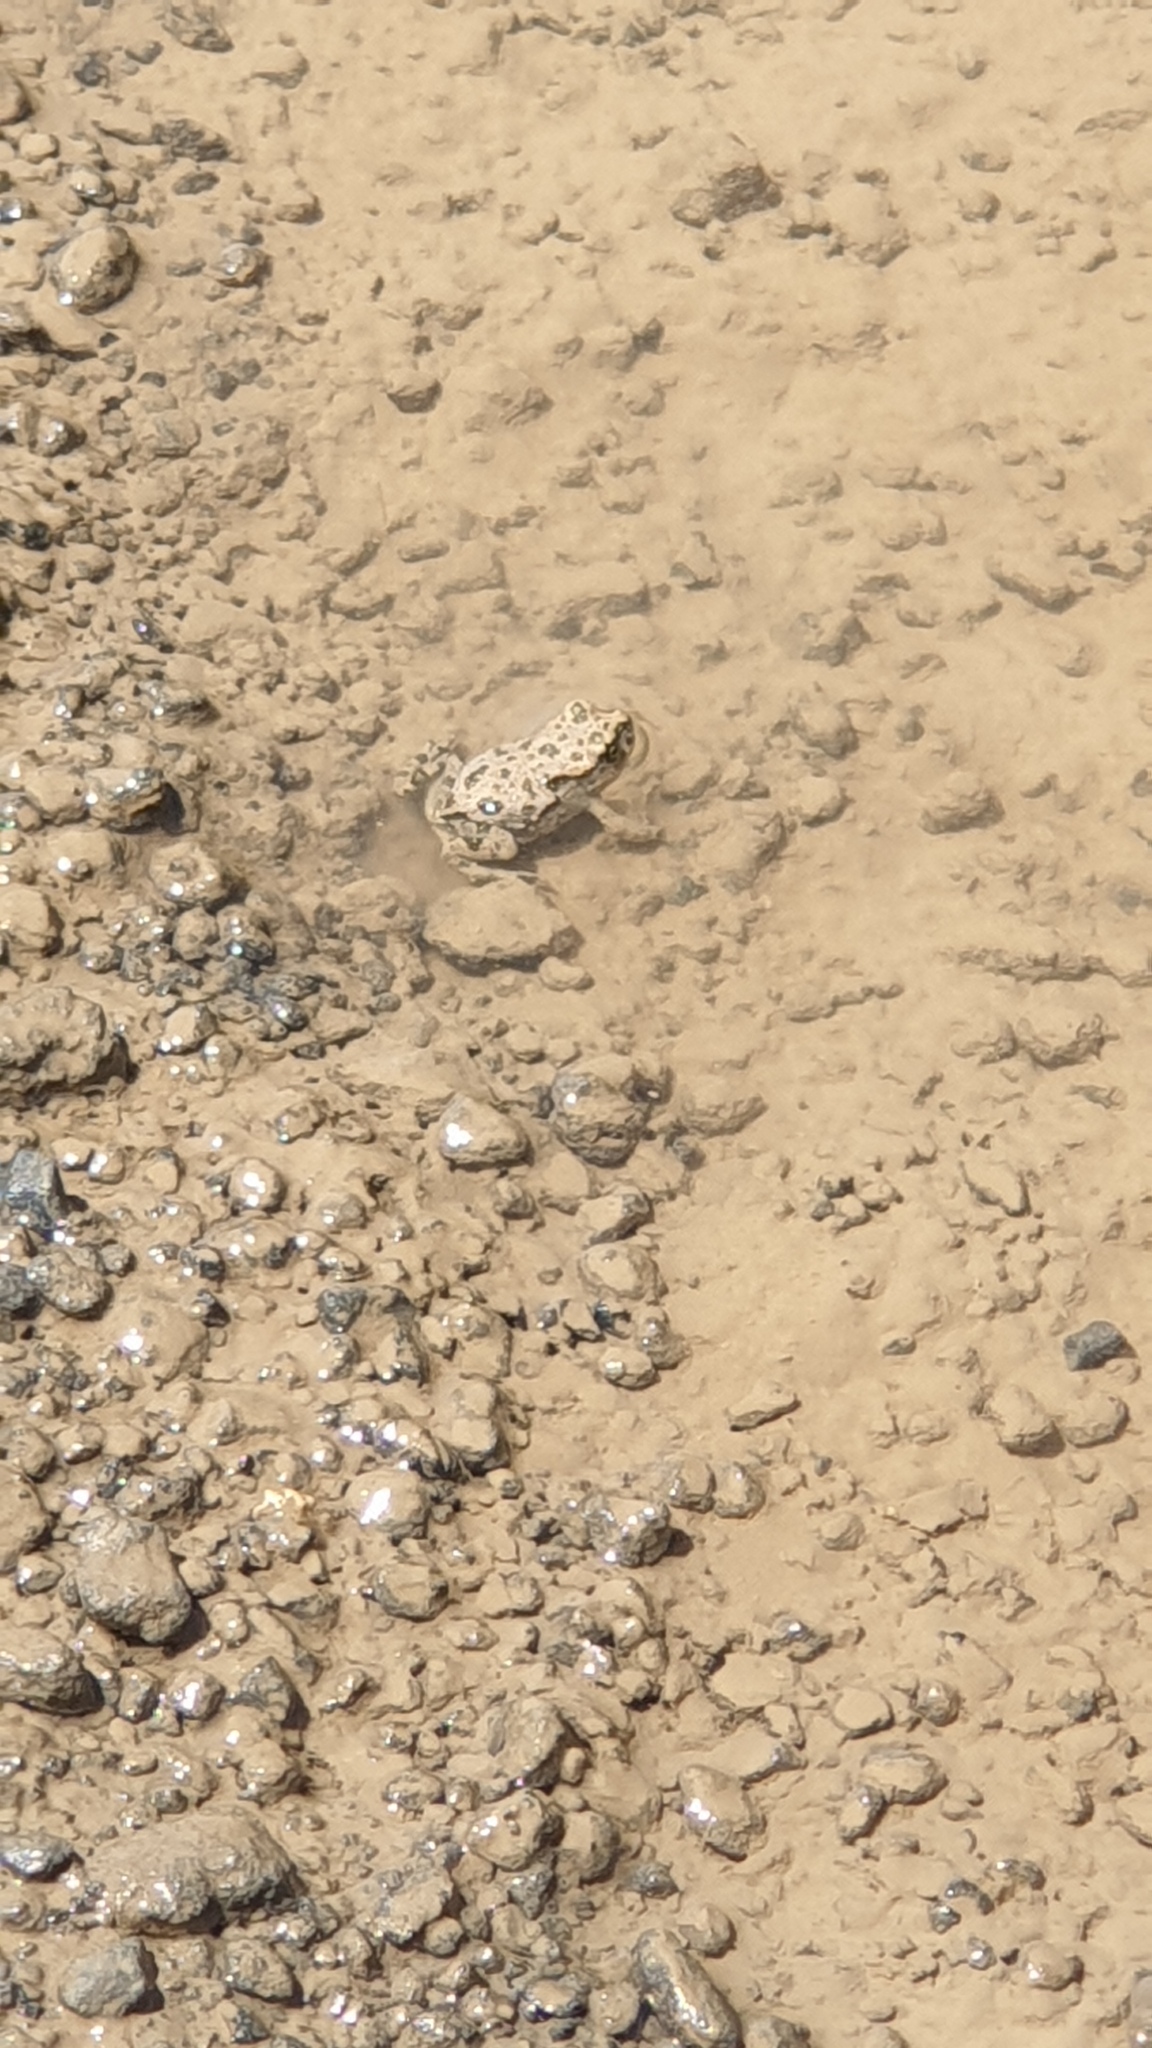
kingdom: Animalia
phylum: Chordata
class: Amphibia
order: Anura
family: Bufonidae
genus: Bufotes
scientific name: Bufotes viridis
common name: European green toad
